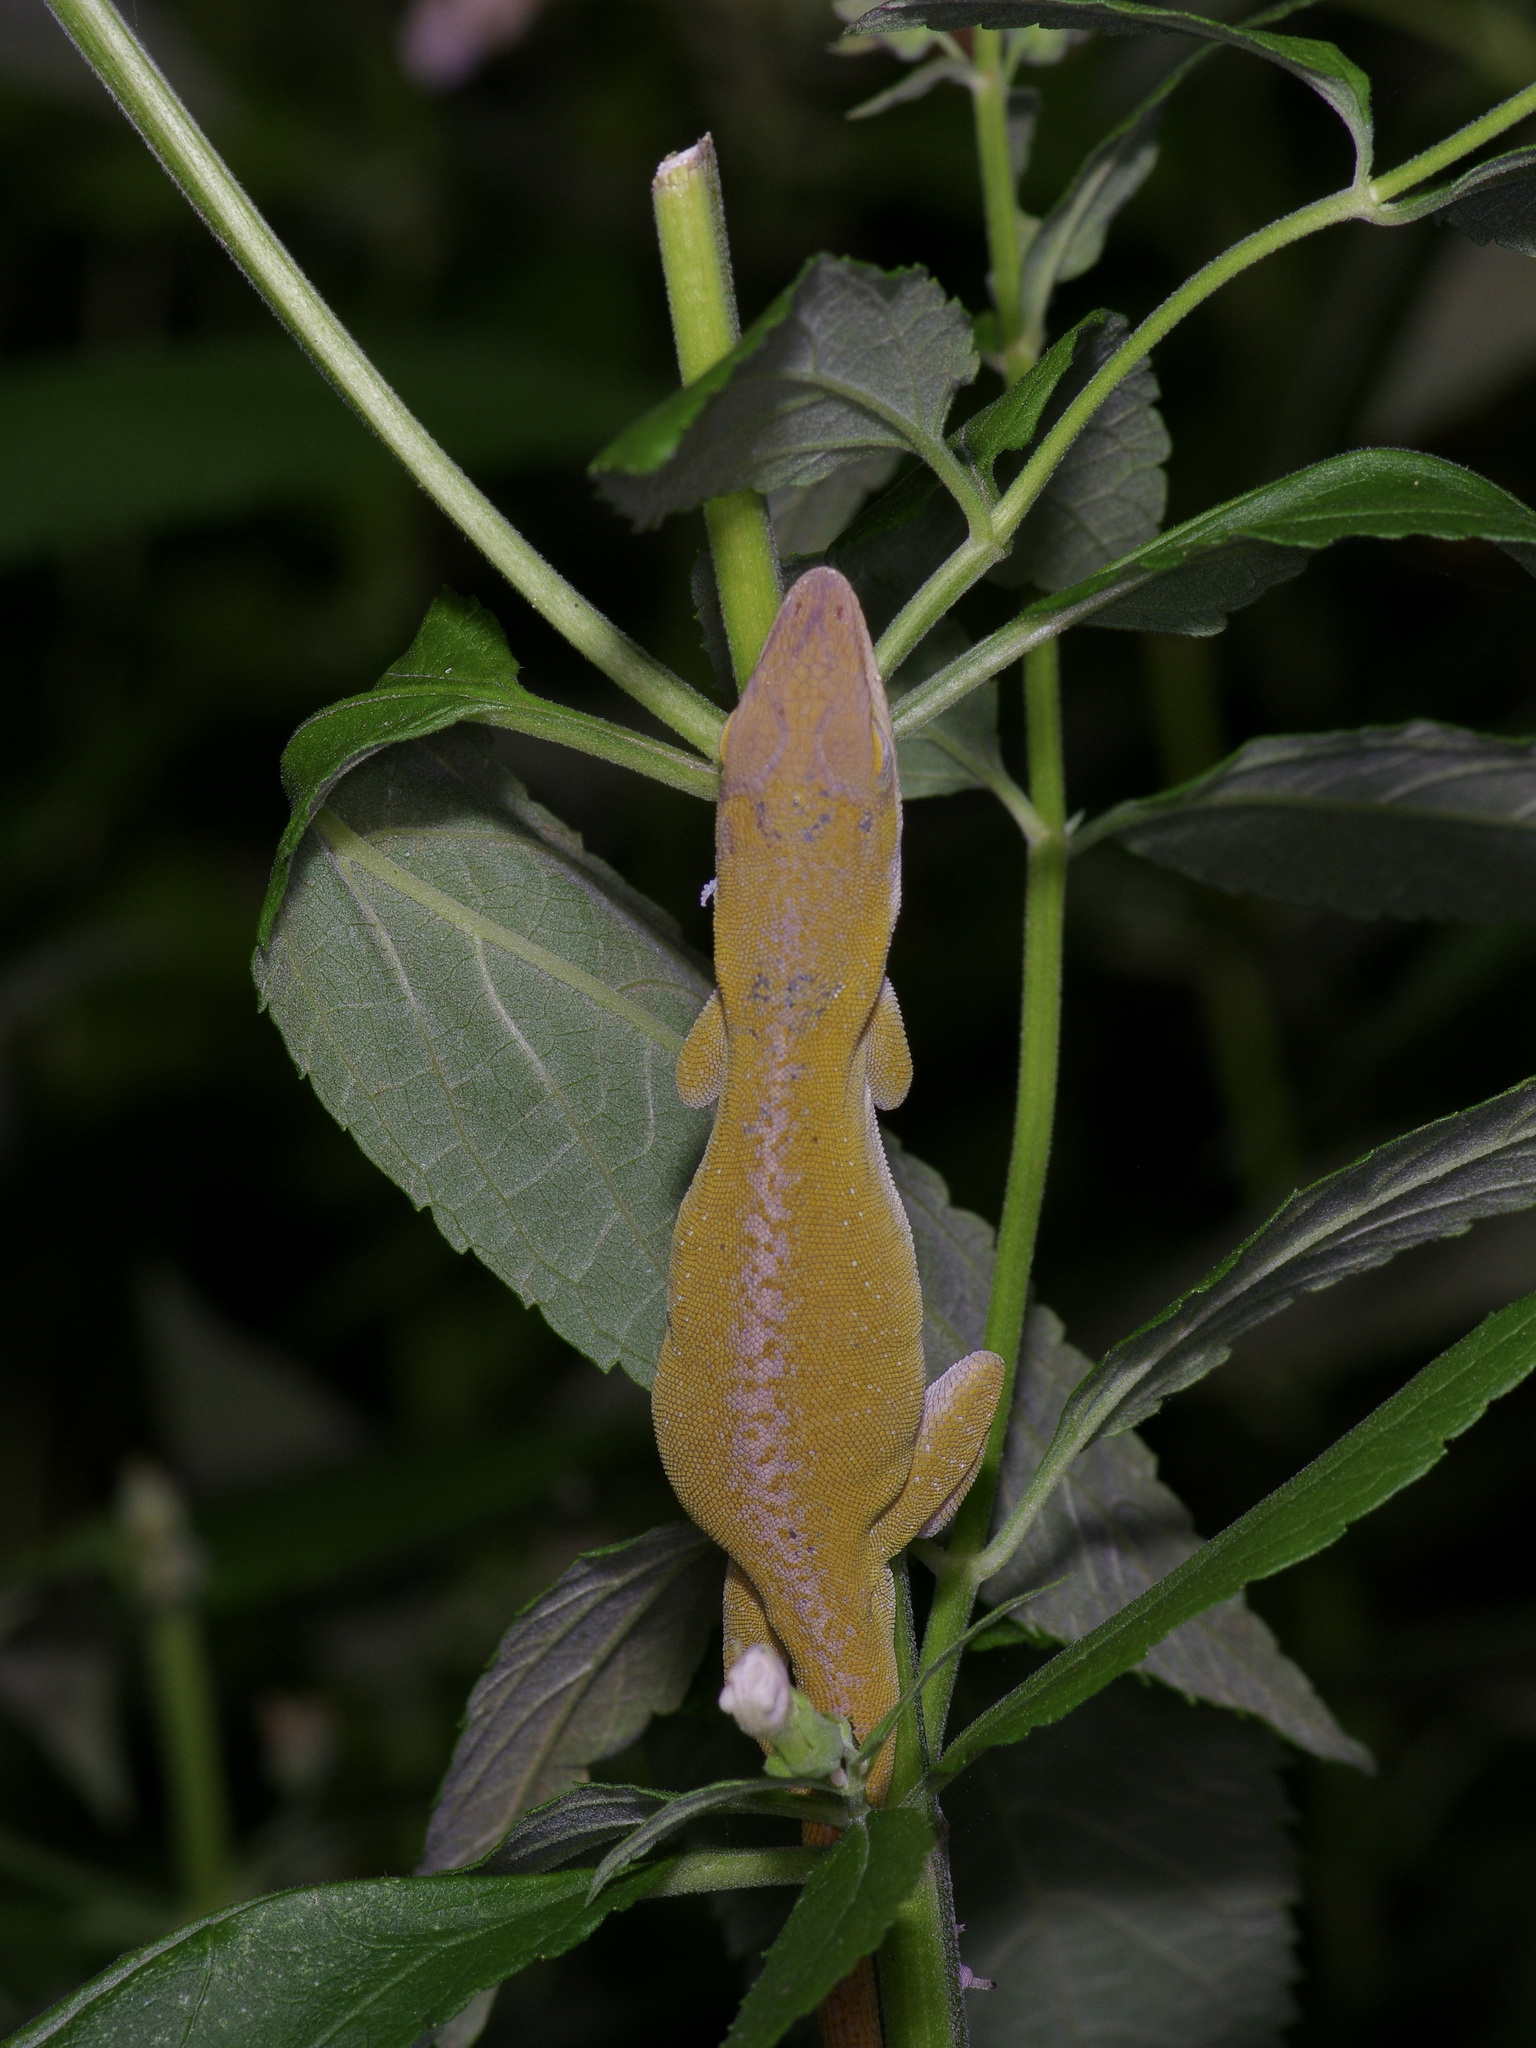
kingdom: Animalia
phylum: Chordata
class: Squamata
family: Dactyloidae
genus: Anolis
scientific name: Anolis carolinensis
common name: Green anole
